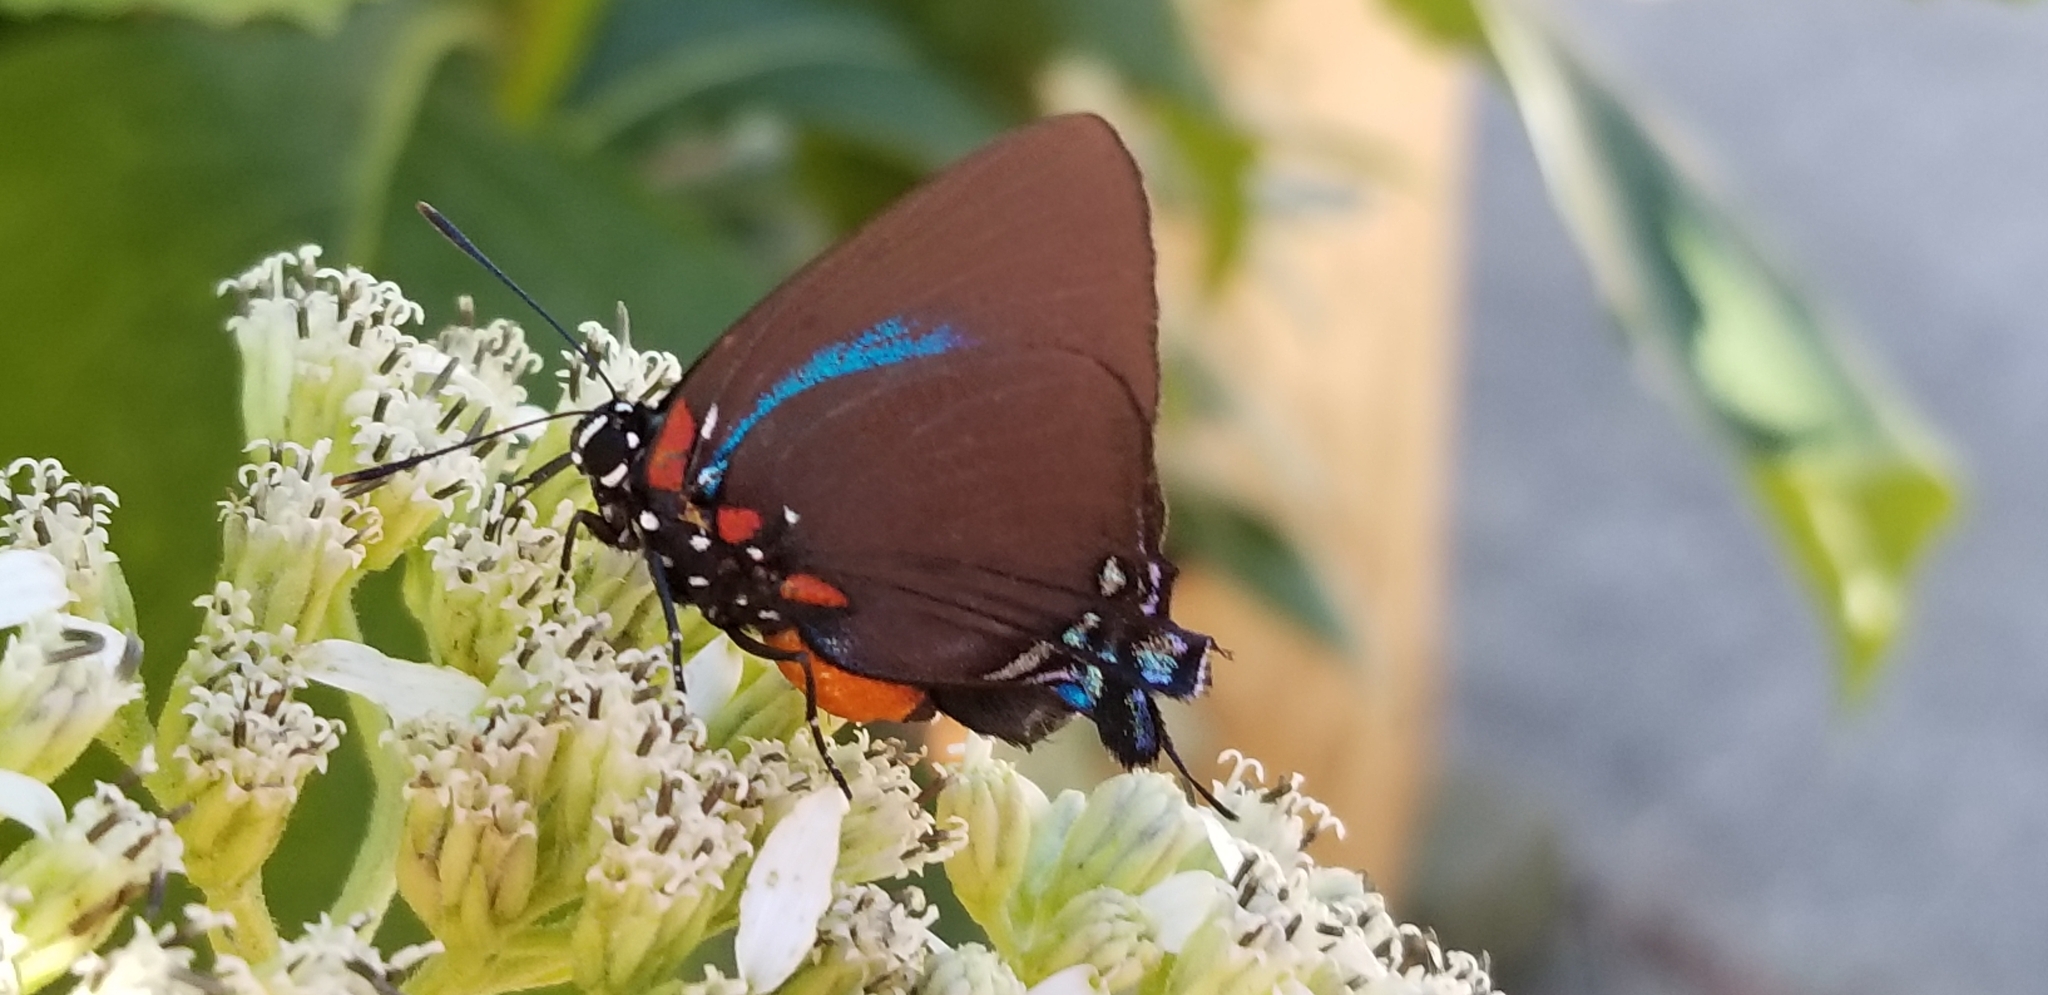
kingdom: Animalia
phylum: Arthropoda
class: Insecta
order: Lepidoptera
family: Lycaenidae
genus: Atlides
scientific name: Atlides halesus
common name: Great purple hairstreak
